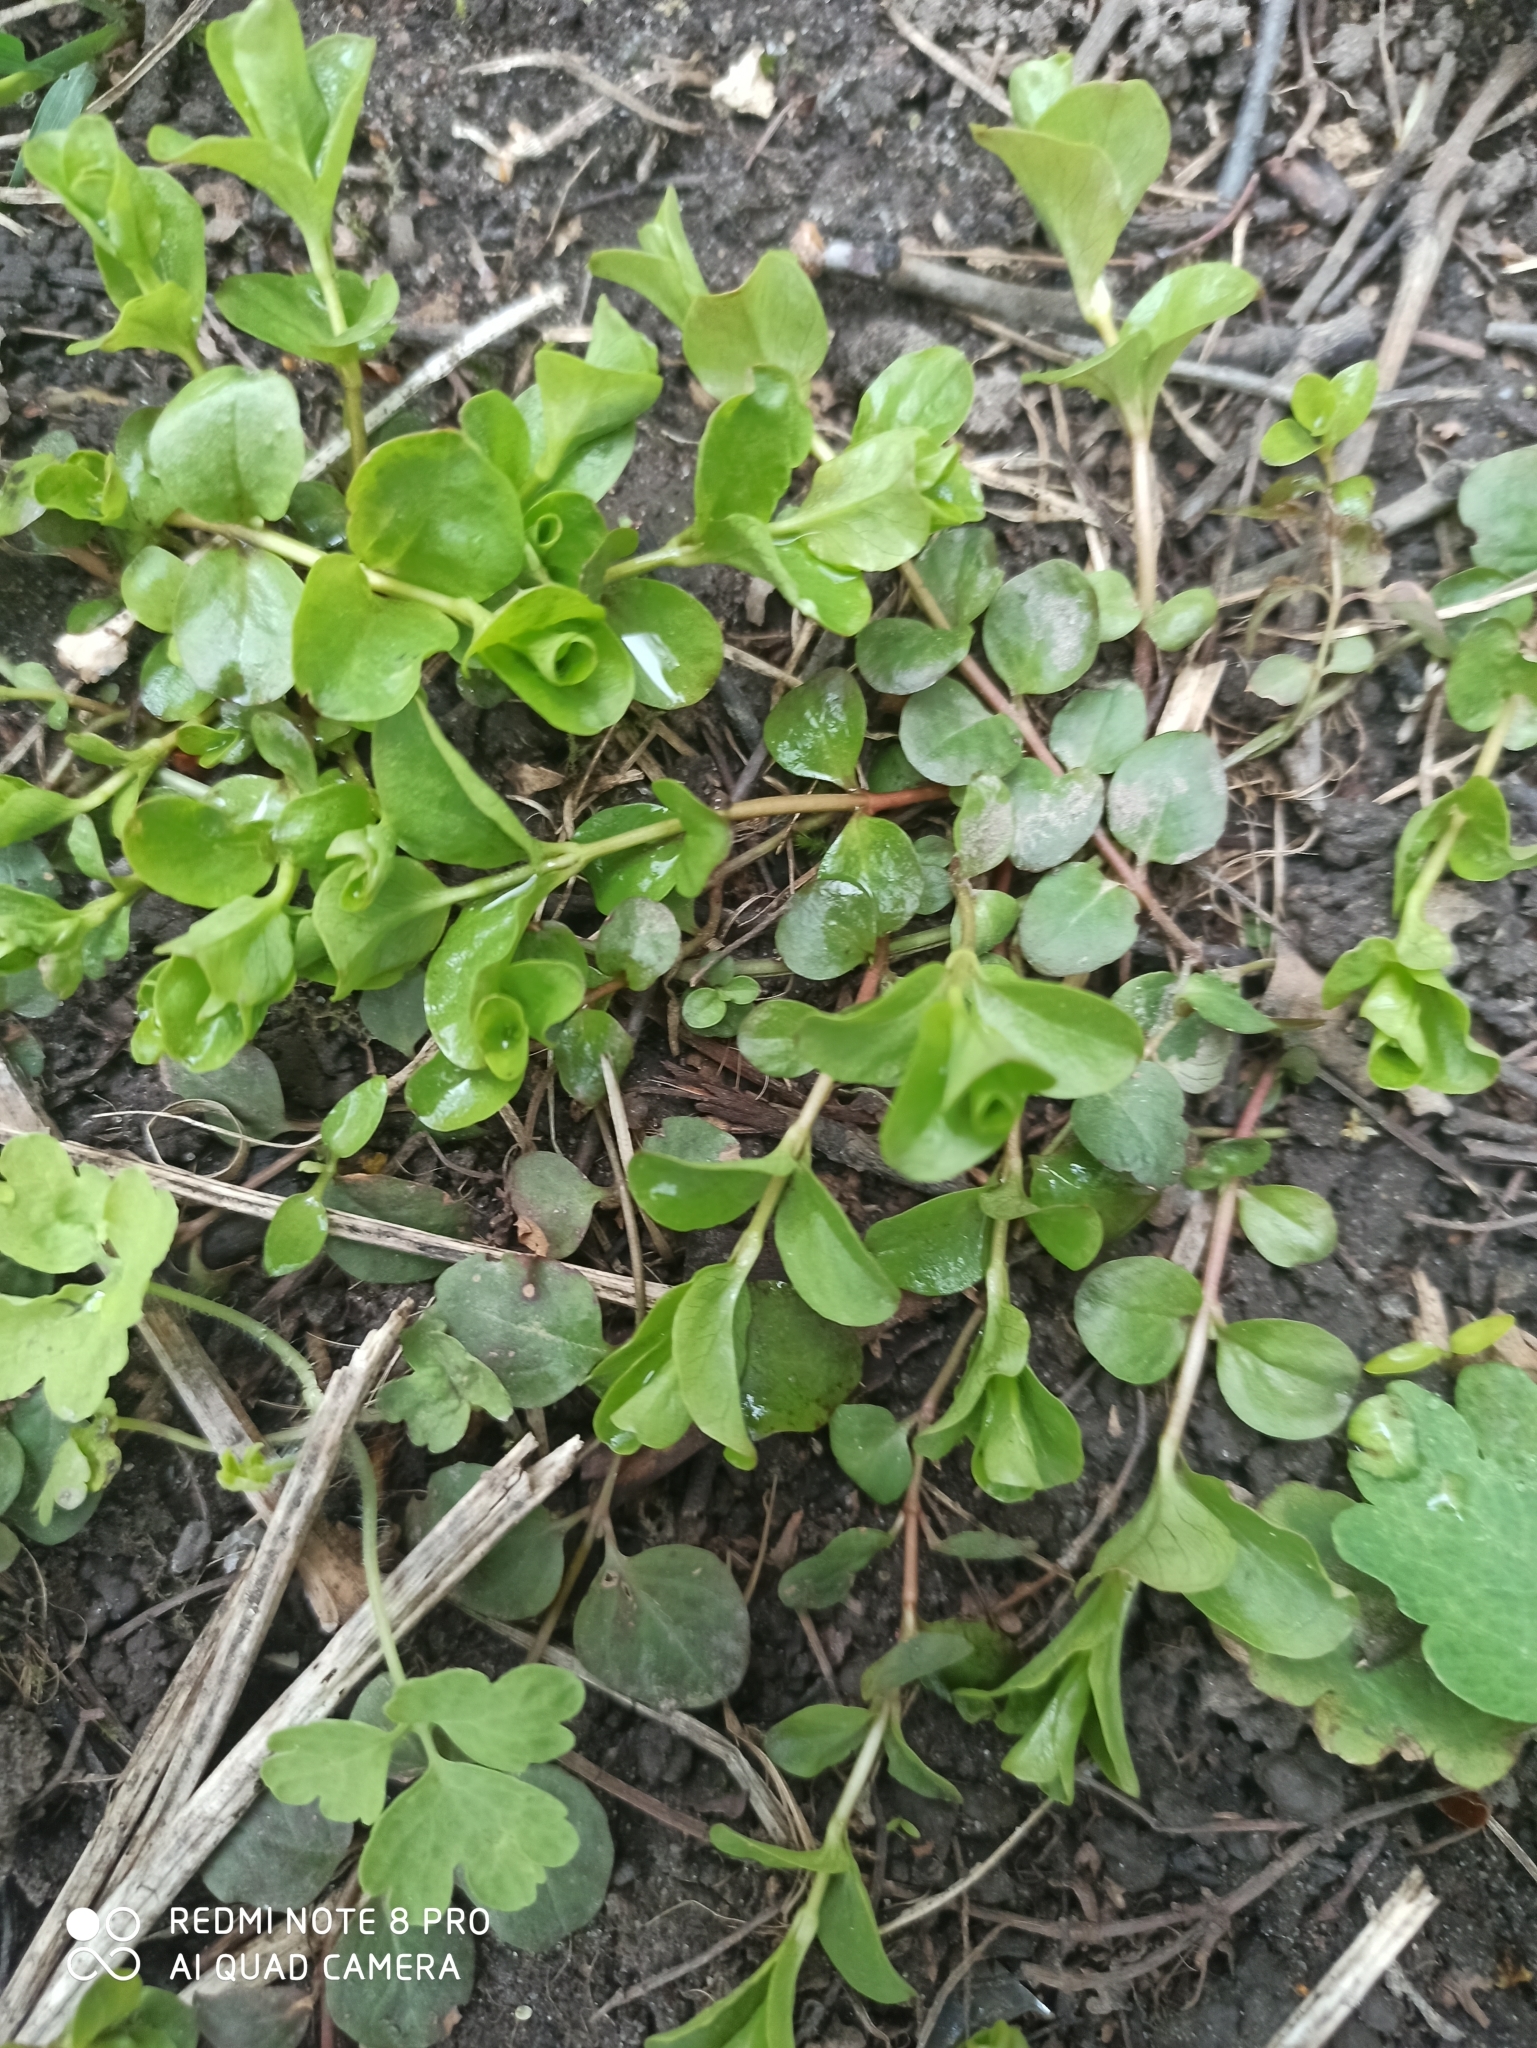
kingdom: Plantae
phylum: Tracheophyta
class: Magnoliopsida
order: Ericales
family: Primulaceae
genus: Lysimachia
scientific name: Lysimachia nummularia
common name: Moneywort
